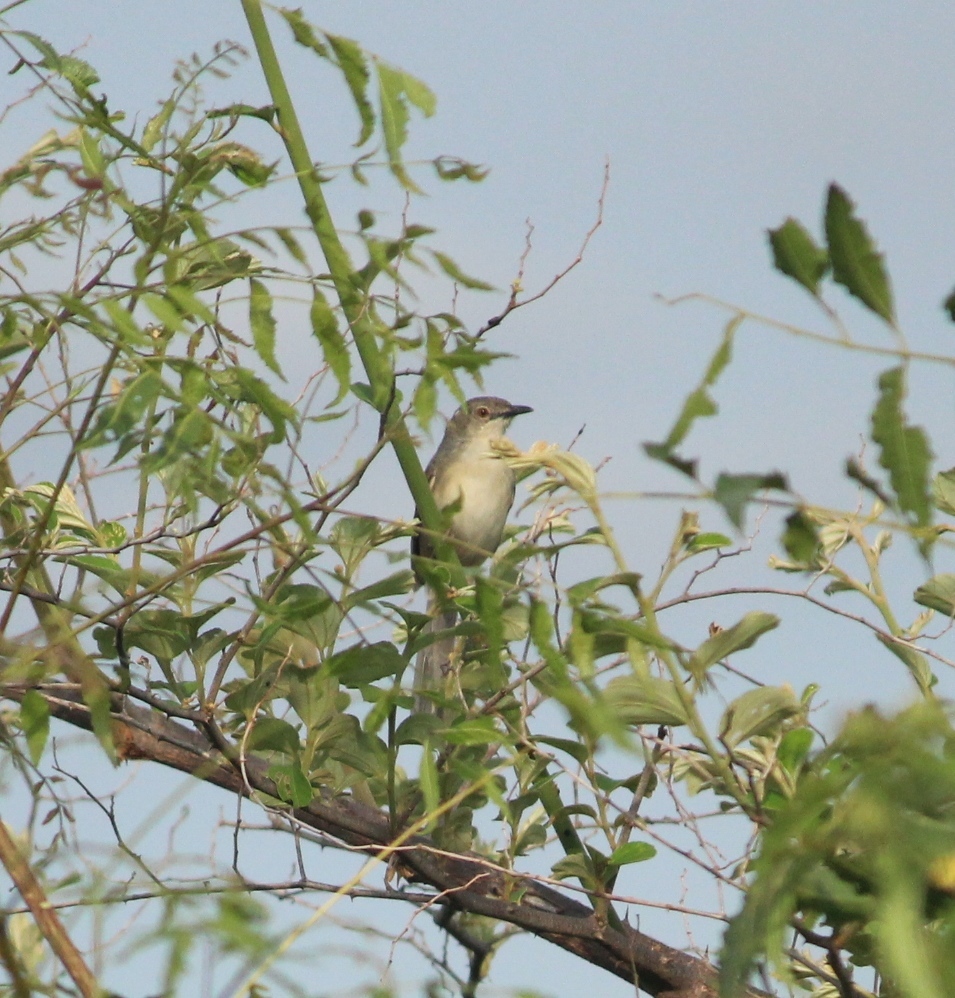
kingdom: Animalia
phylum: Chordata
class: Aves
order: Passeriformes
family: Cisticolidae
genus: Prinia
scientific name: Prinia sylvatica
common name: Jungle prinia
